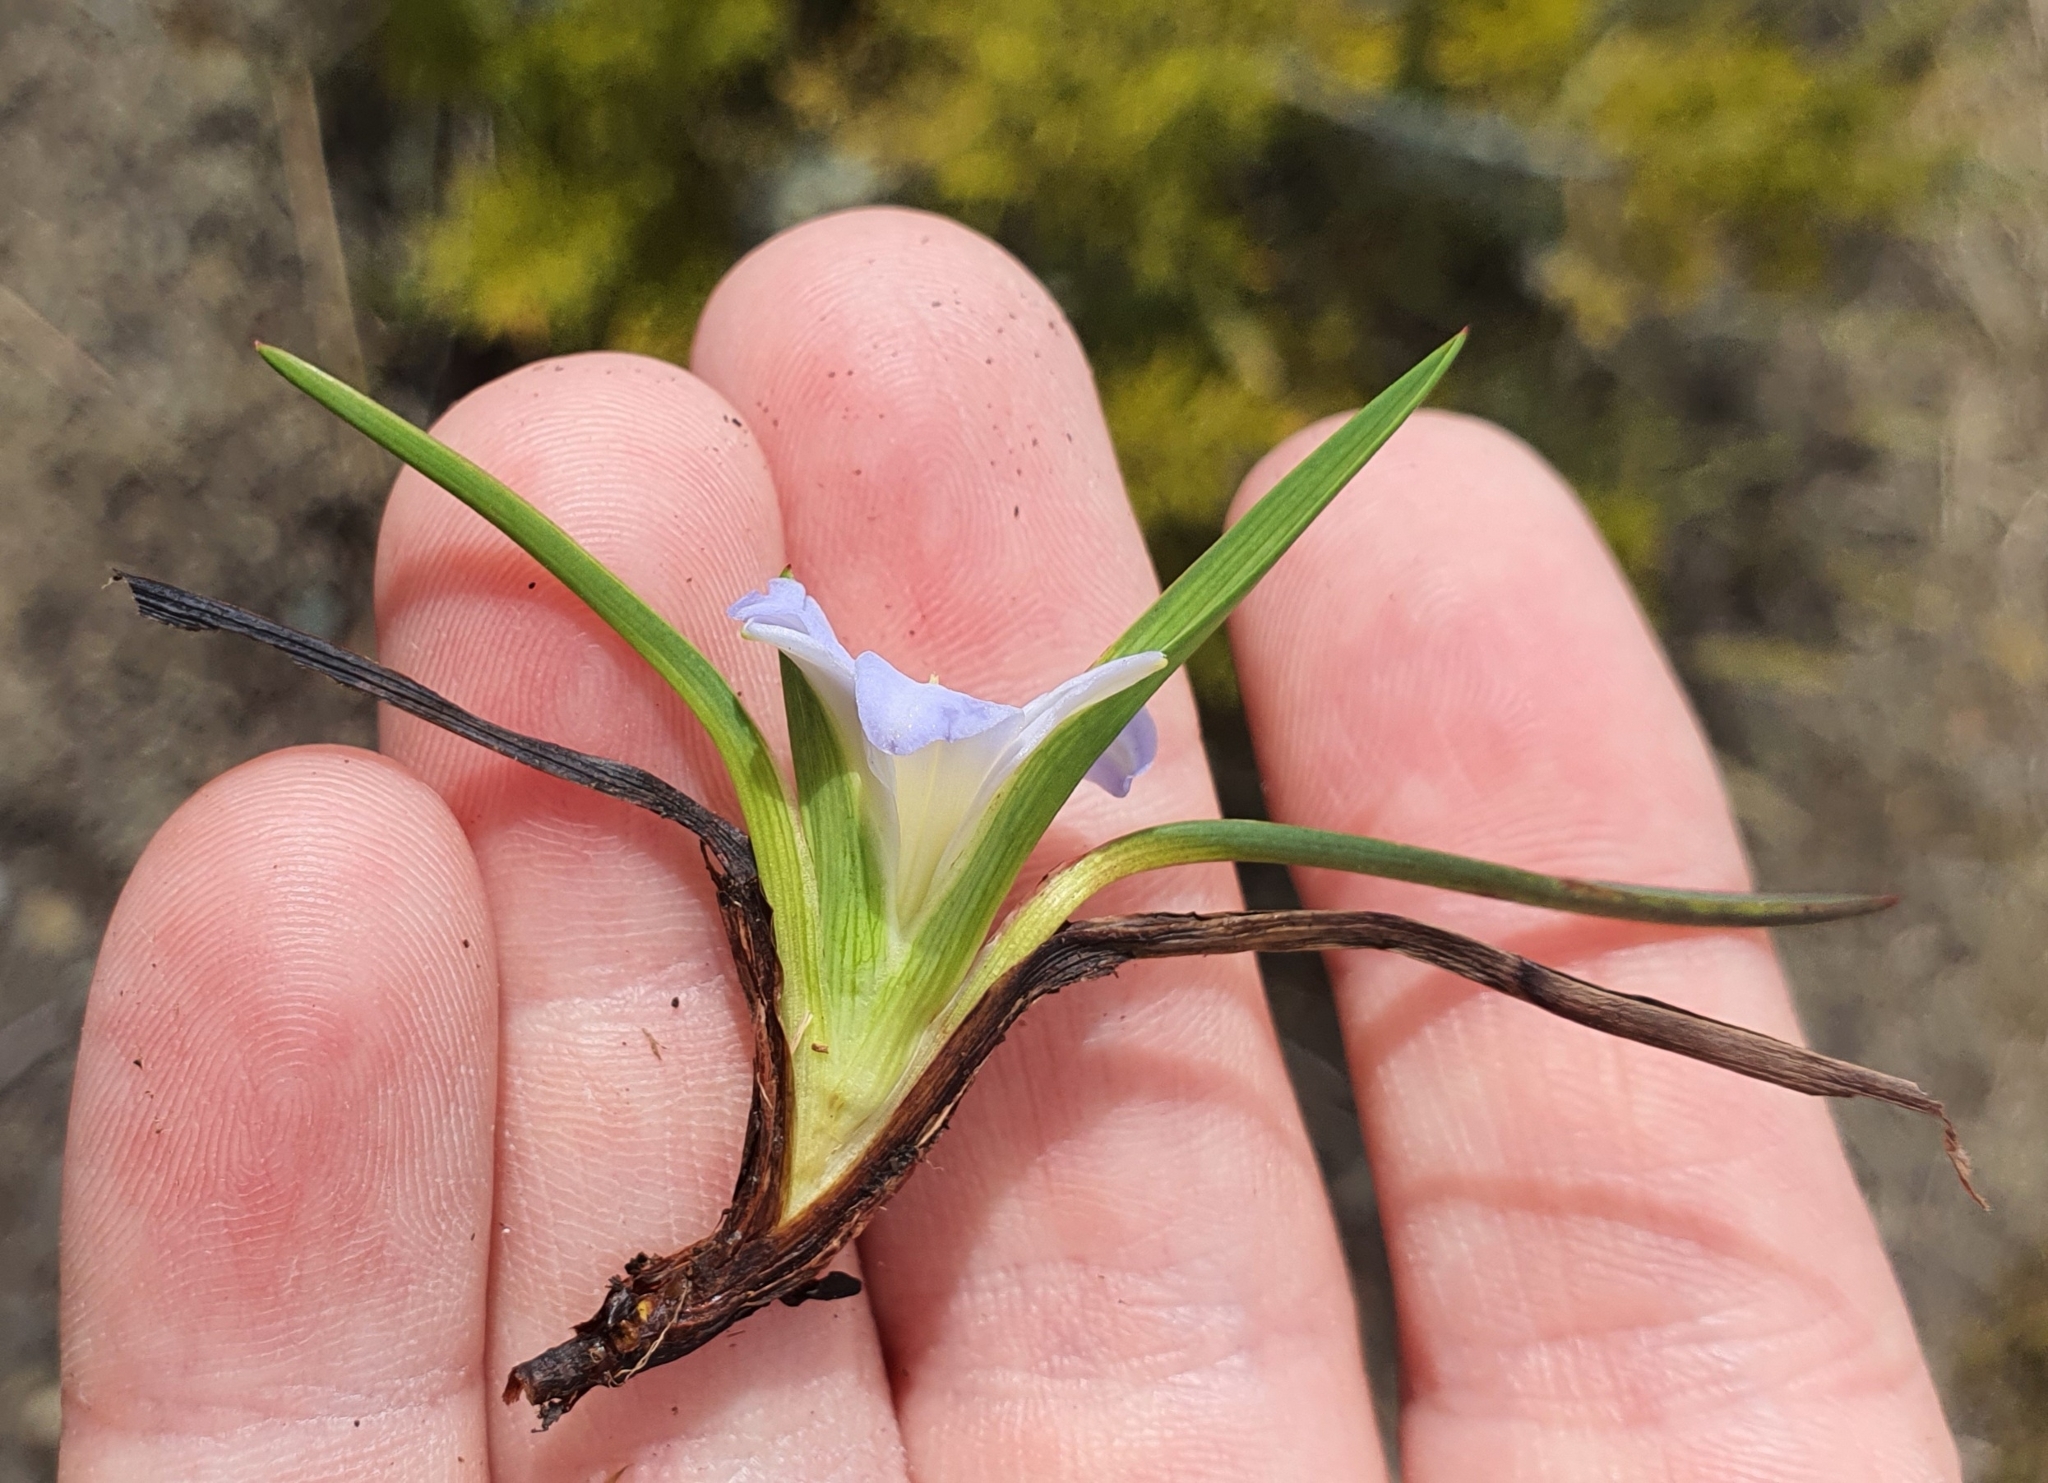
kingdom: Plantae
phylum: Tracheophyta
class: Liliopsida
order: Asparagales
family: Asphodelaceae
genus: Herpolirion
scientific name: Herpolirion novae-zelandiae
